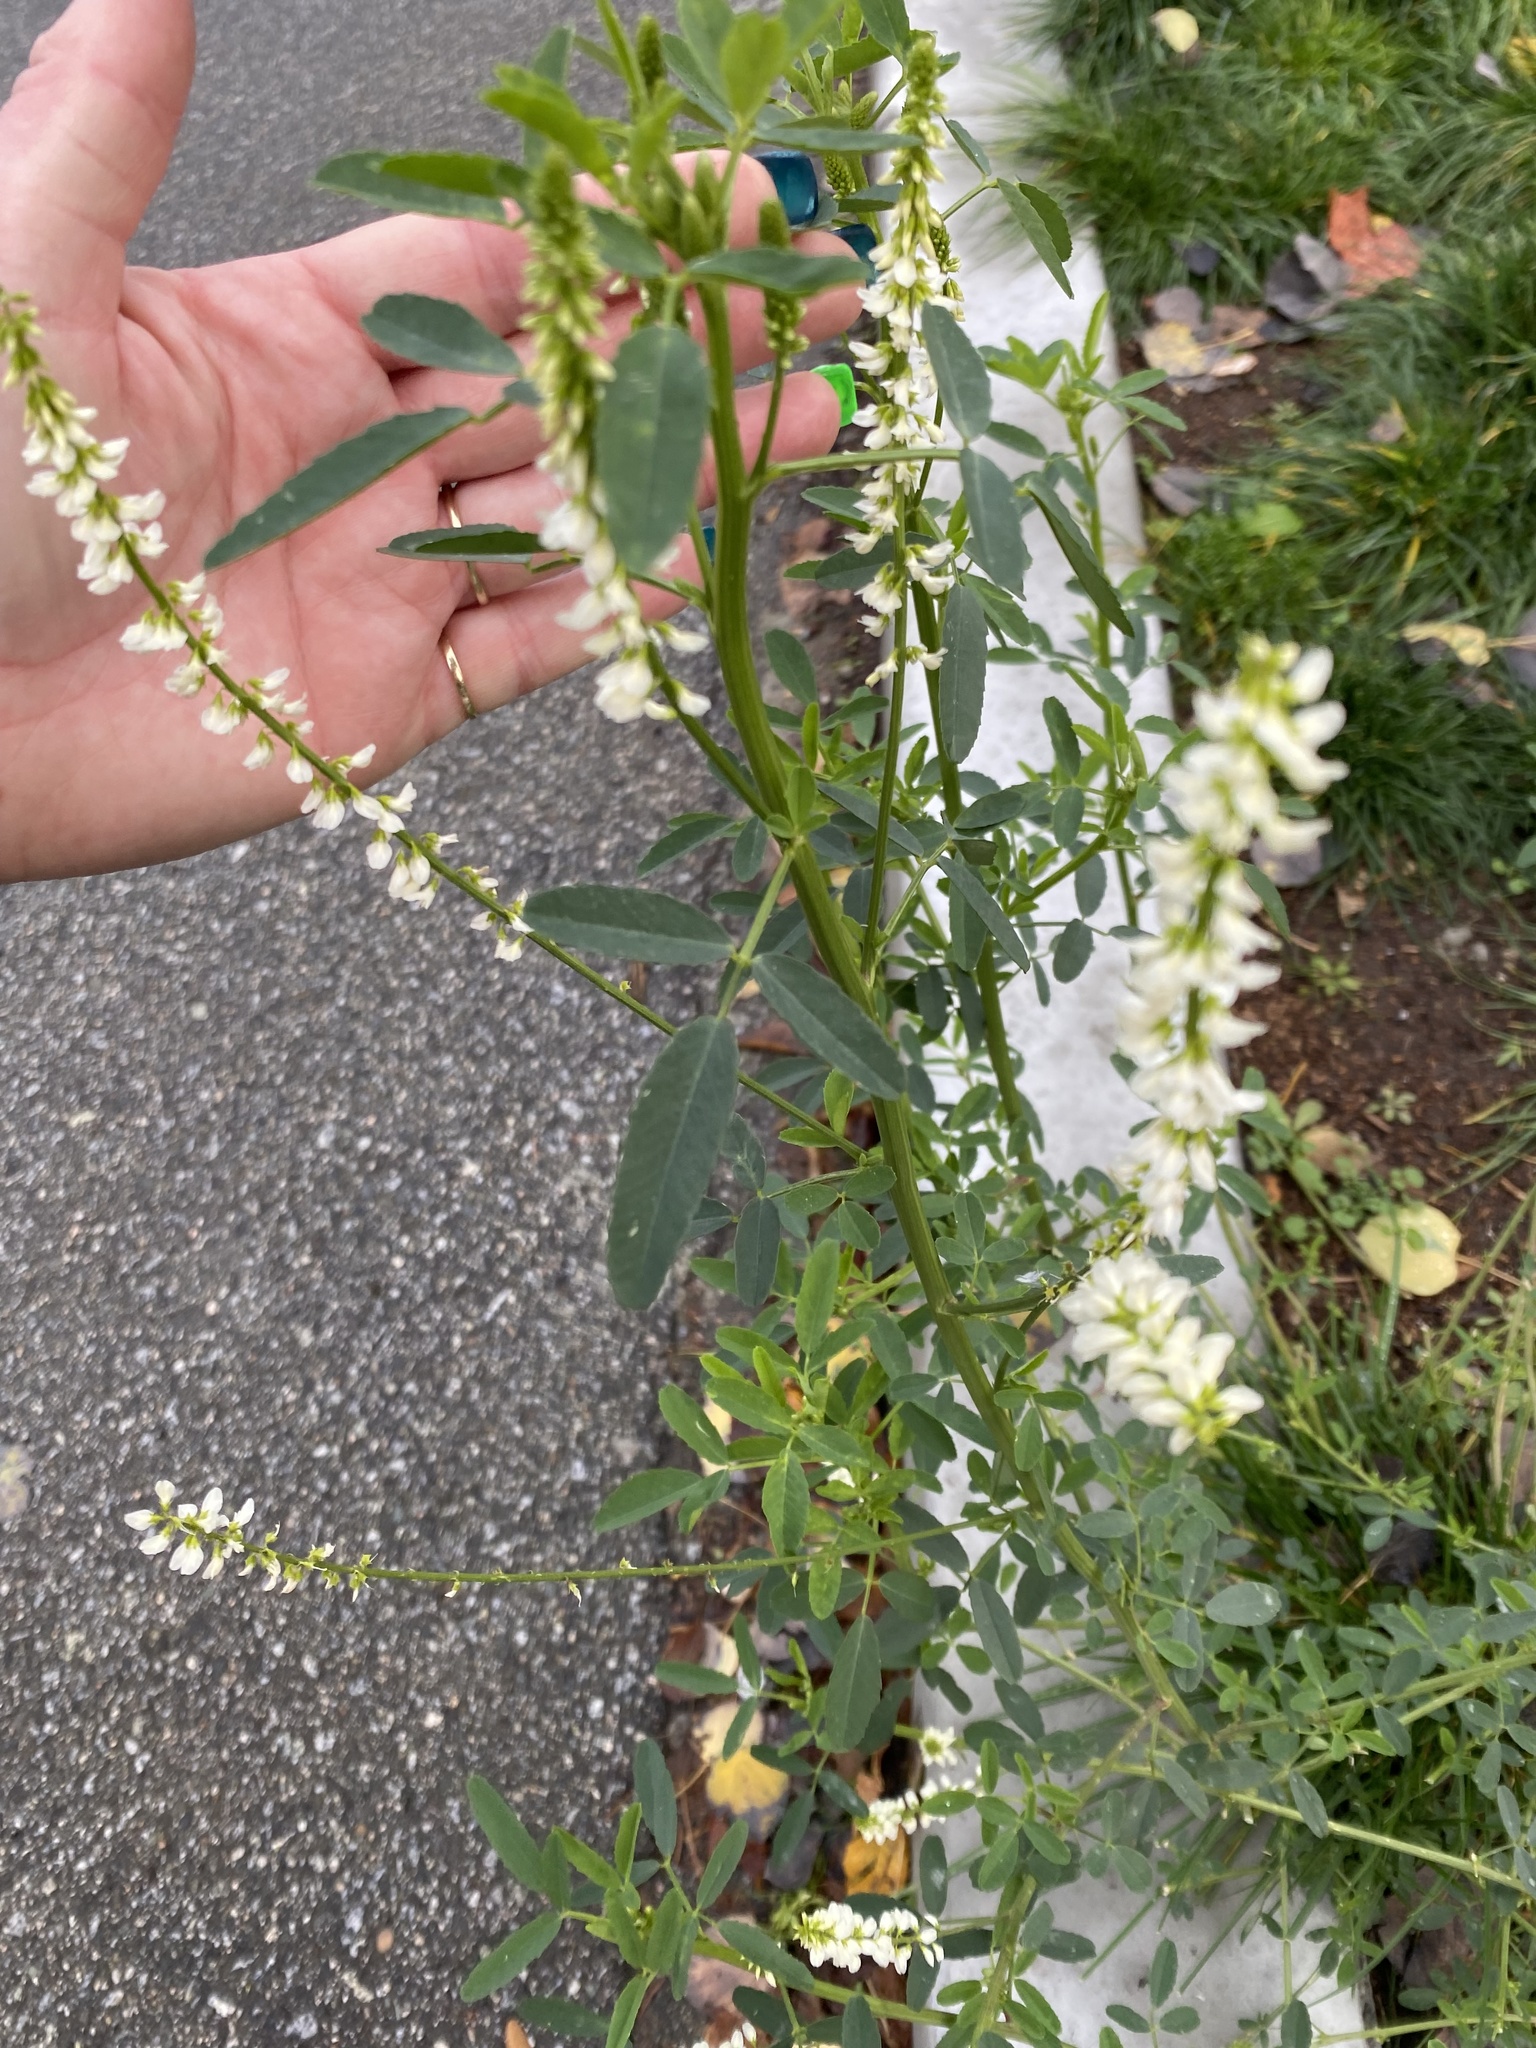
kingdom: Plantae
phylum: Tracheophyta
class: Magnoliopsida
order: Fabales
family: Fabaceae
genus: Melilotus
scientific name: Melilotus albus
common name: White melilot
